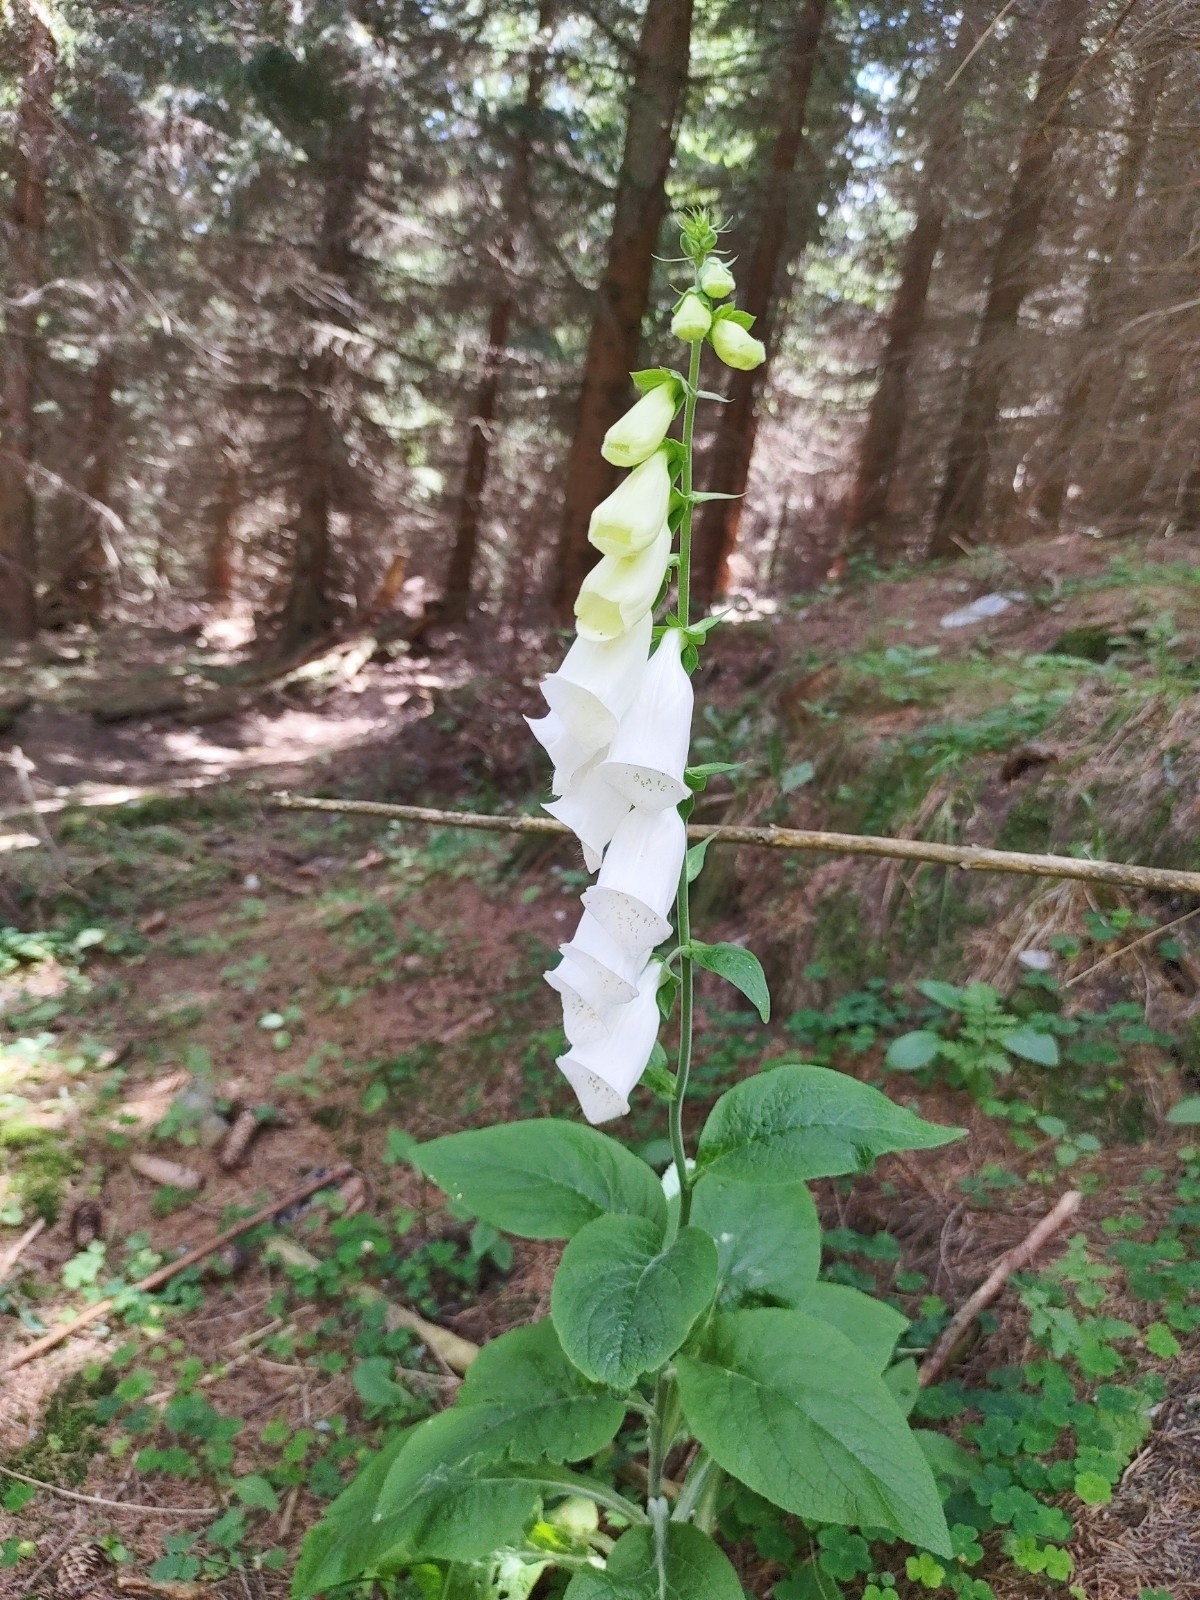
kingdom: Plantae
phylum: Tracheophyta
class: Magnoliopsida
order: Lamiales
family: Plantaginaceae
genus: Digitalis
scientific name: Digitalis purpurea
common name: Foxglove
